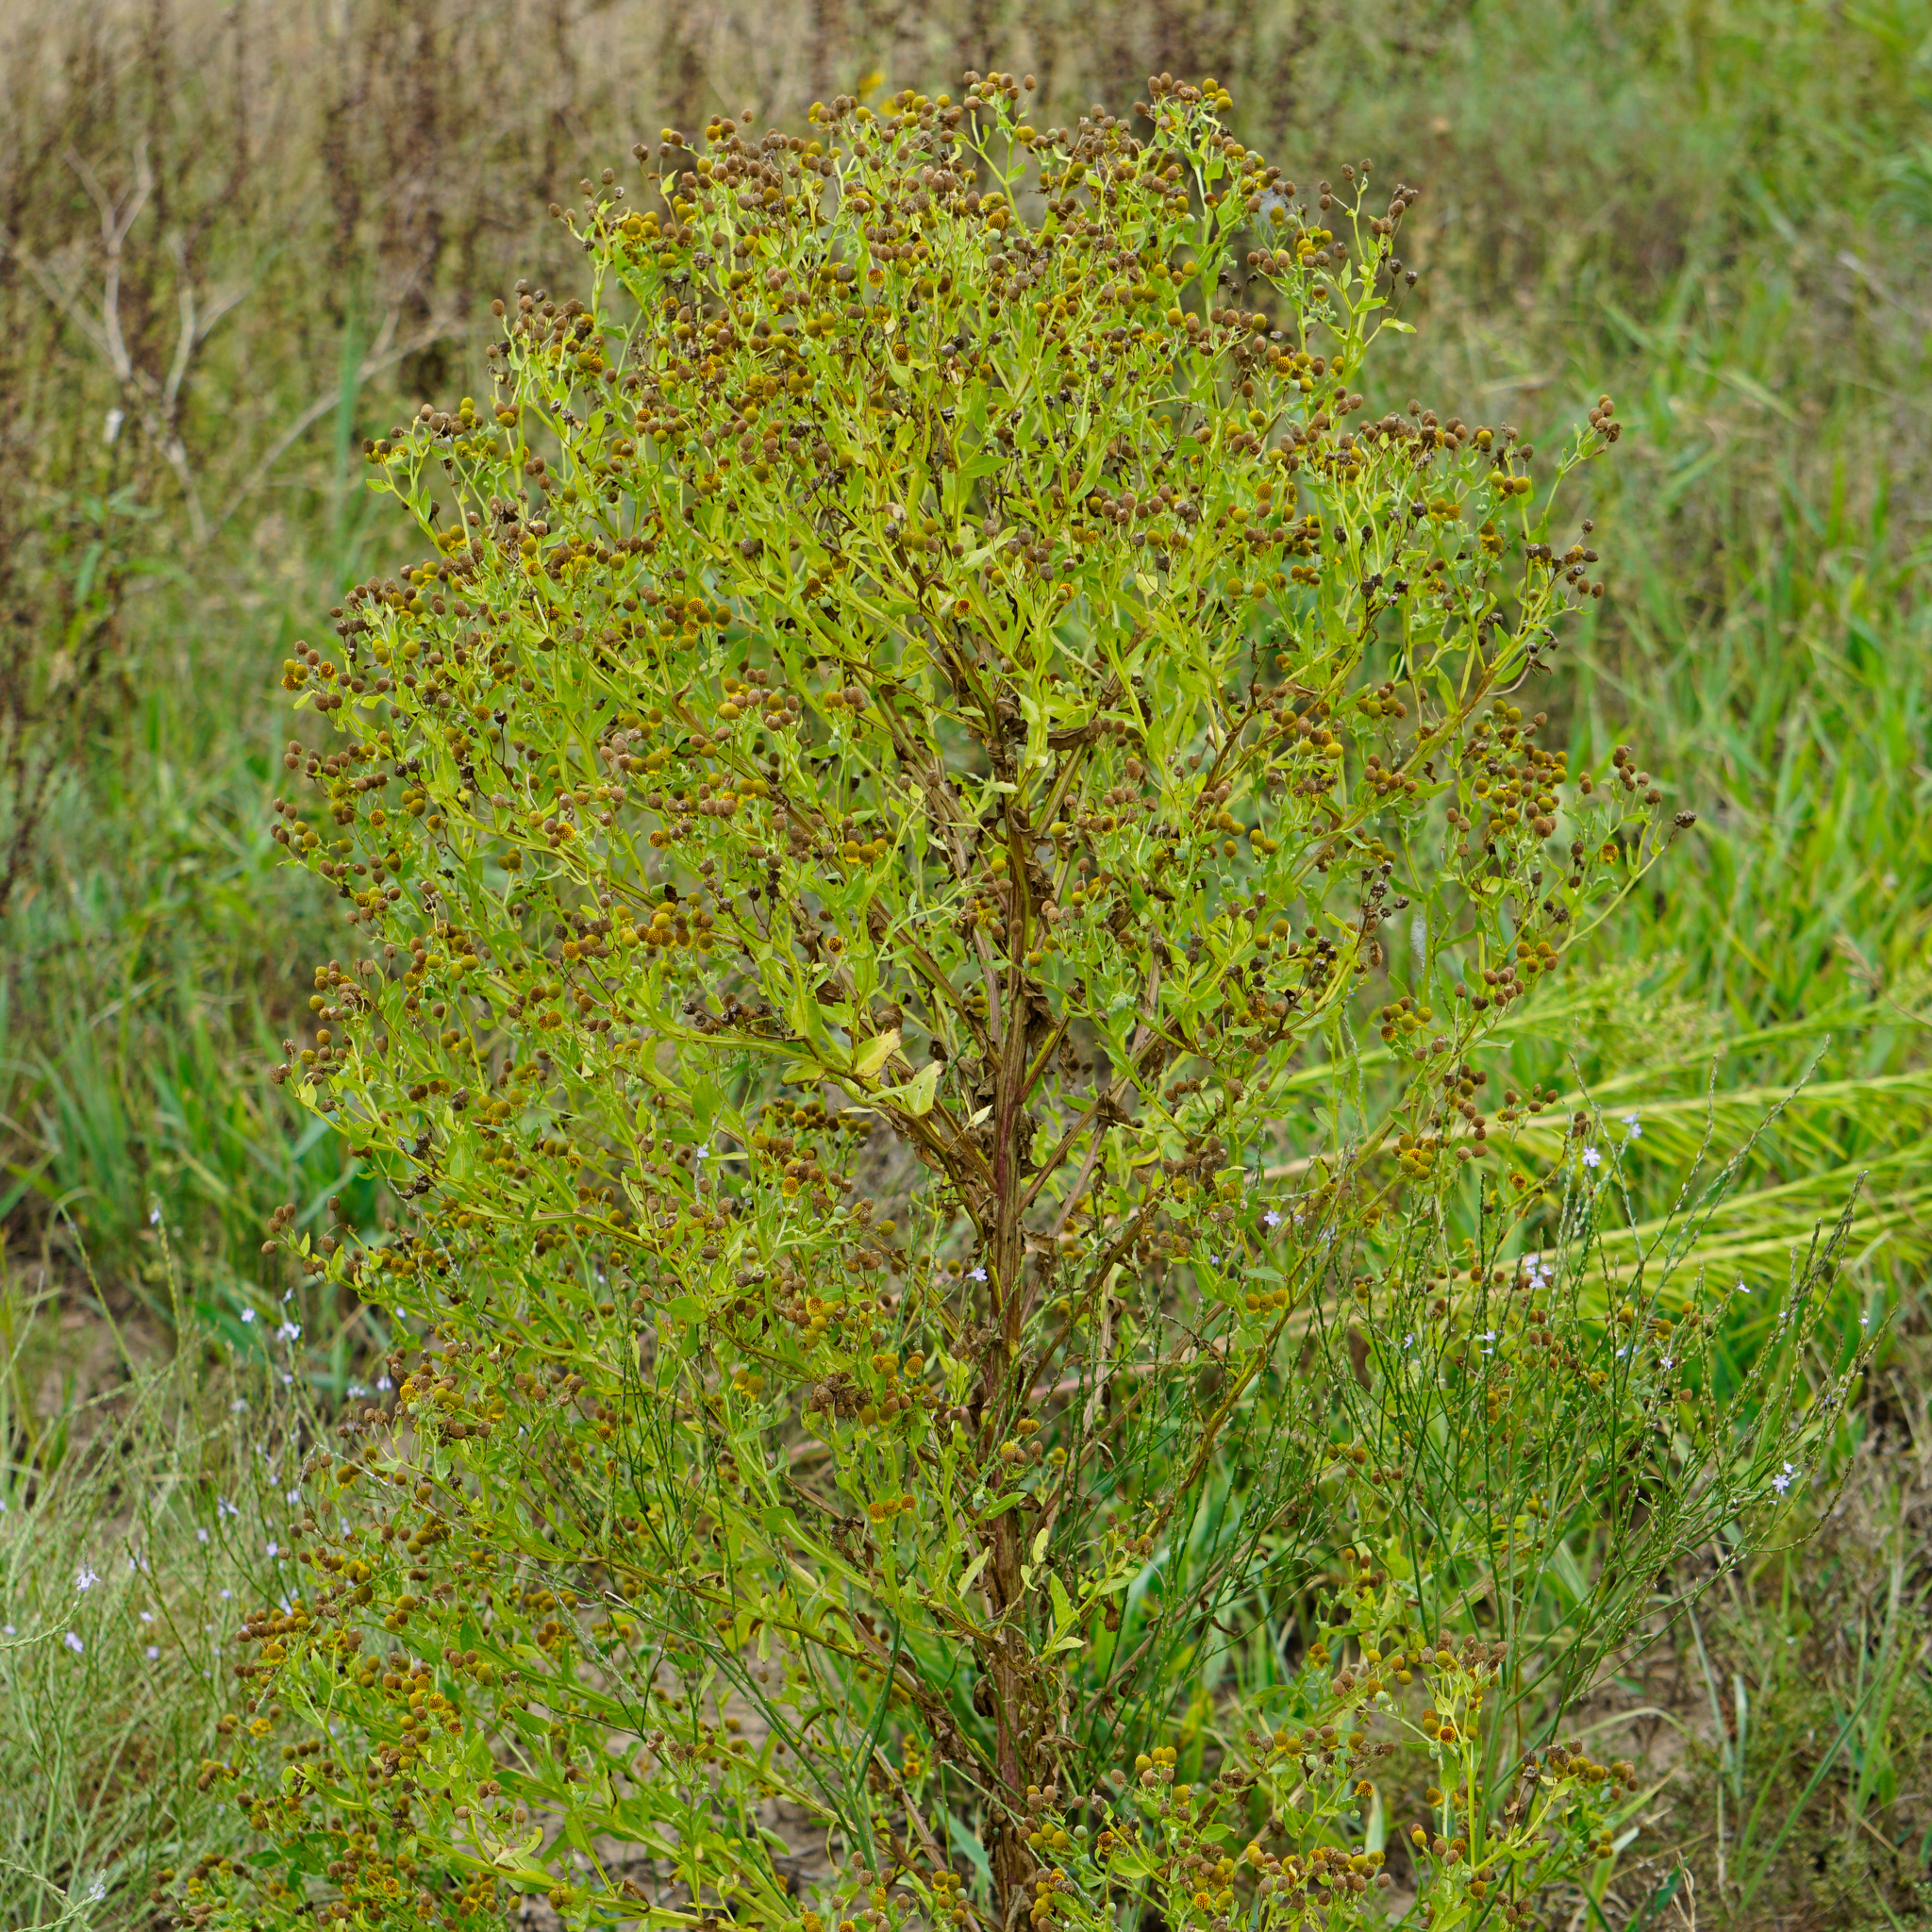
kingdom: Plantae
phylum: Tracheophyta
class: Magnoliopsida
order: Asterales
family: Asteraceae
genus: Helenium
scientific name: Helenium microcephalum
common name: Smallhead sneezeweed
